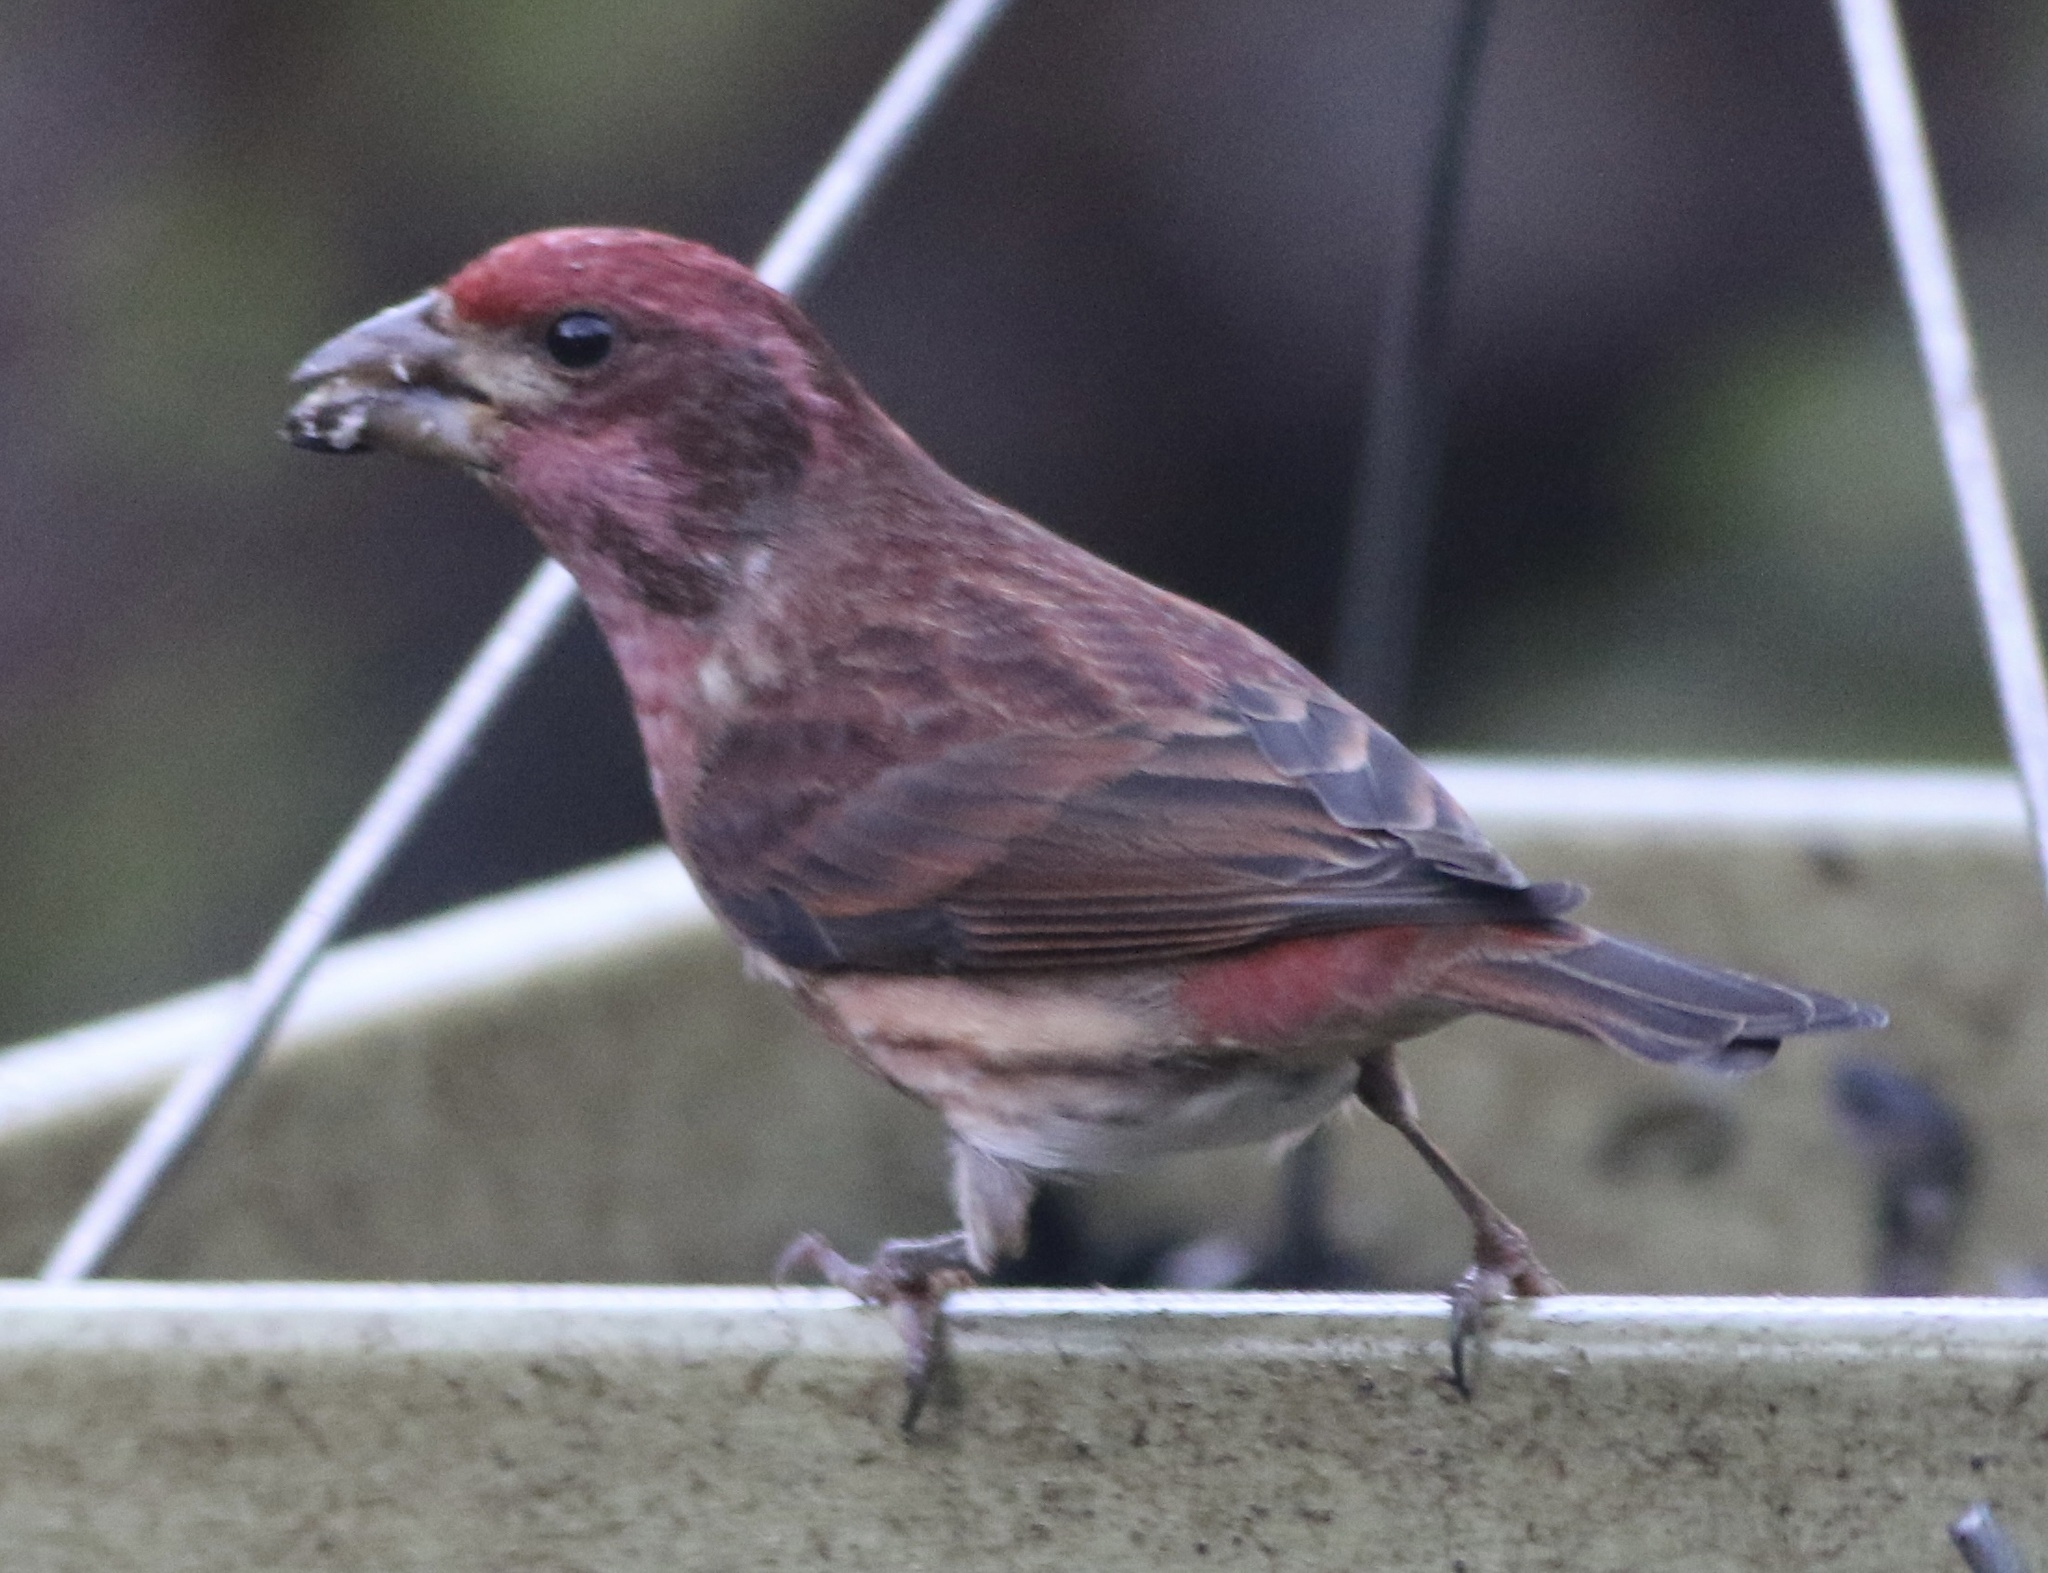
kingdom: Animalia
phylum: Chordata
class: Aves
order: Passeriformes
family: Fringillidae
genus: Haemorhous
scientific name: Haemorhous purpureus
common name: Purple finch
